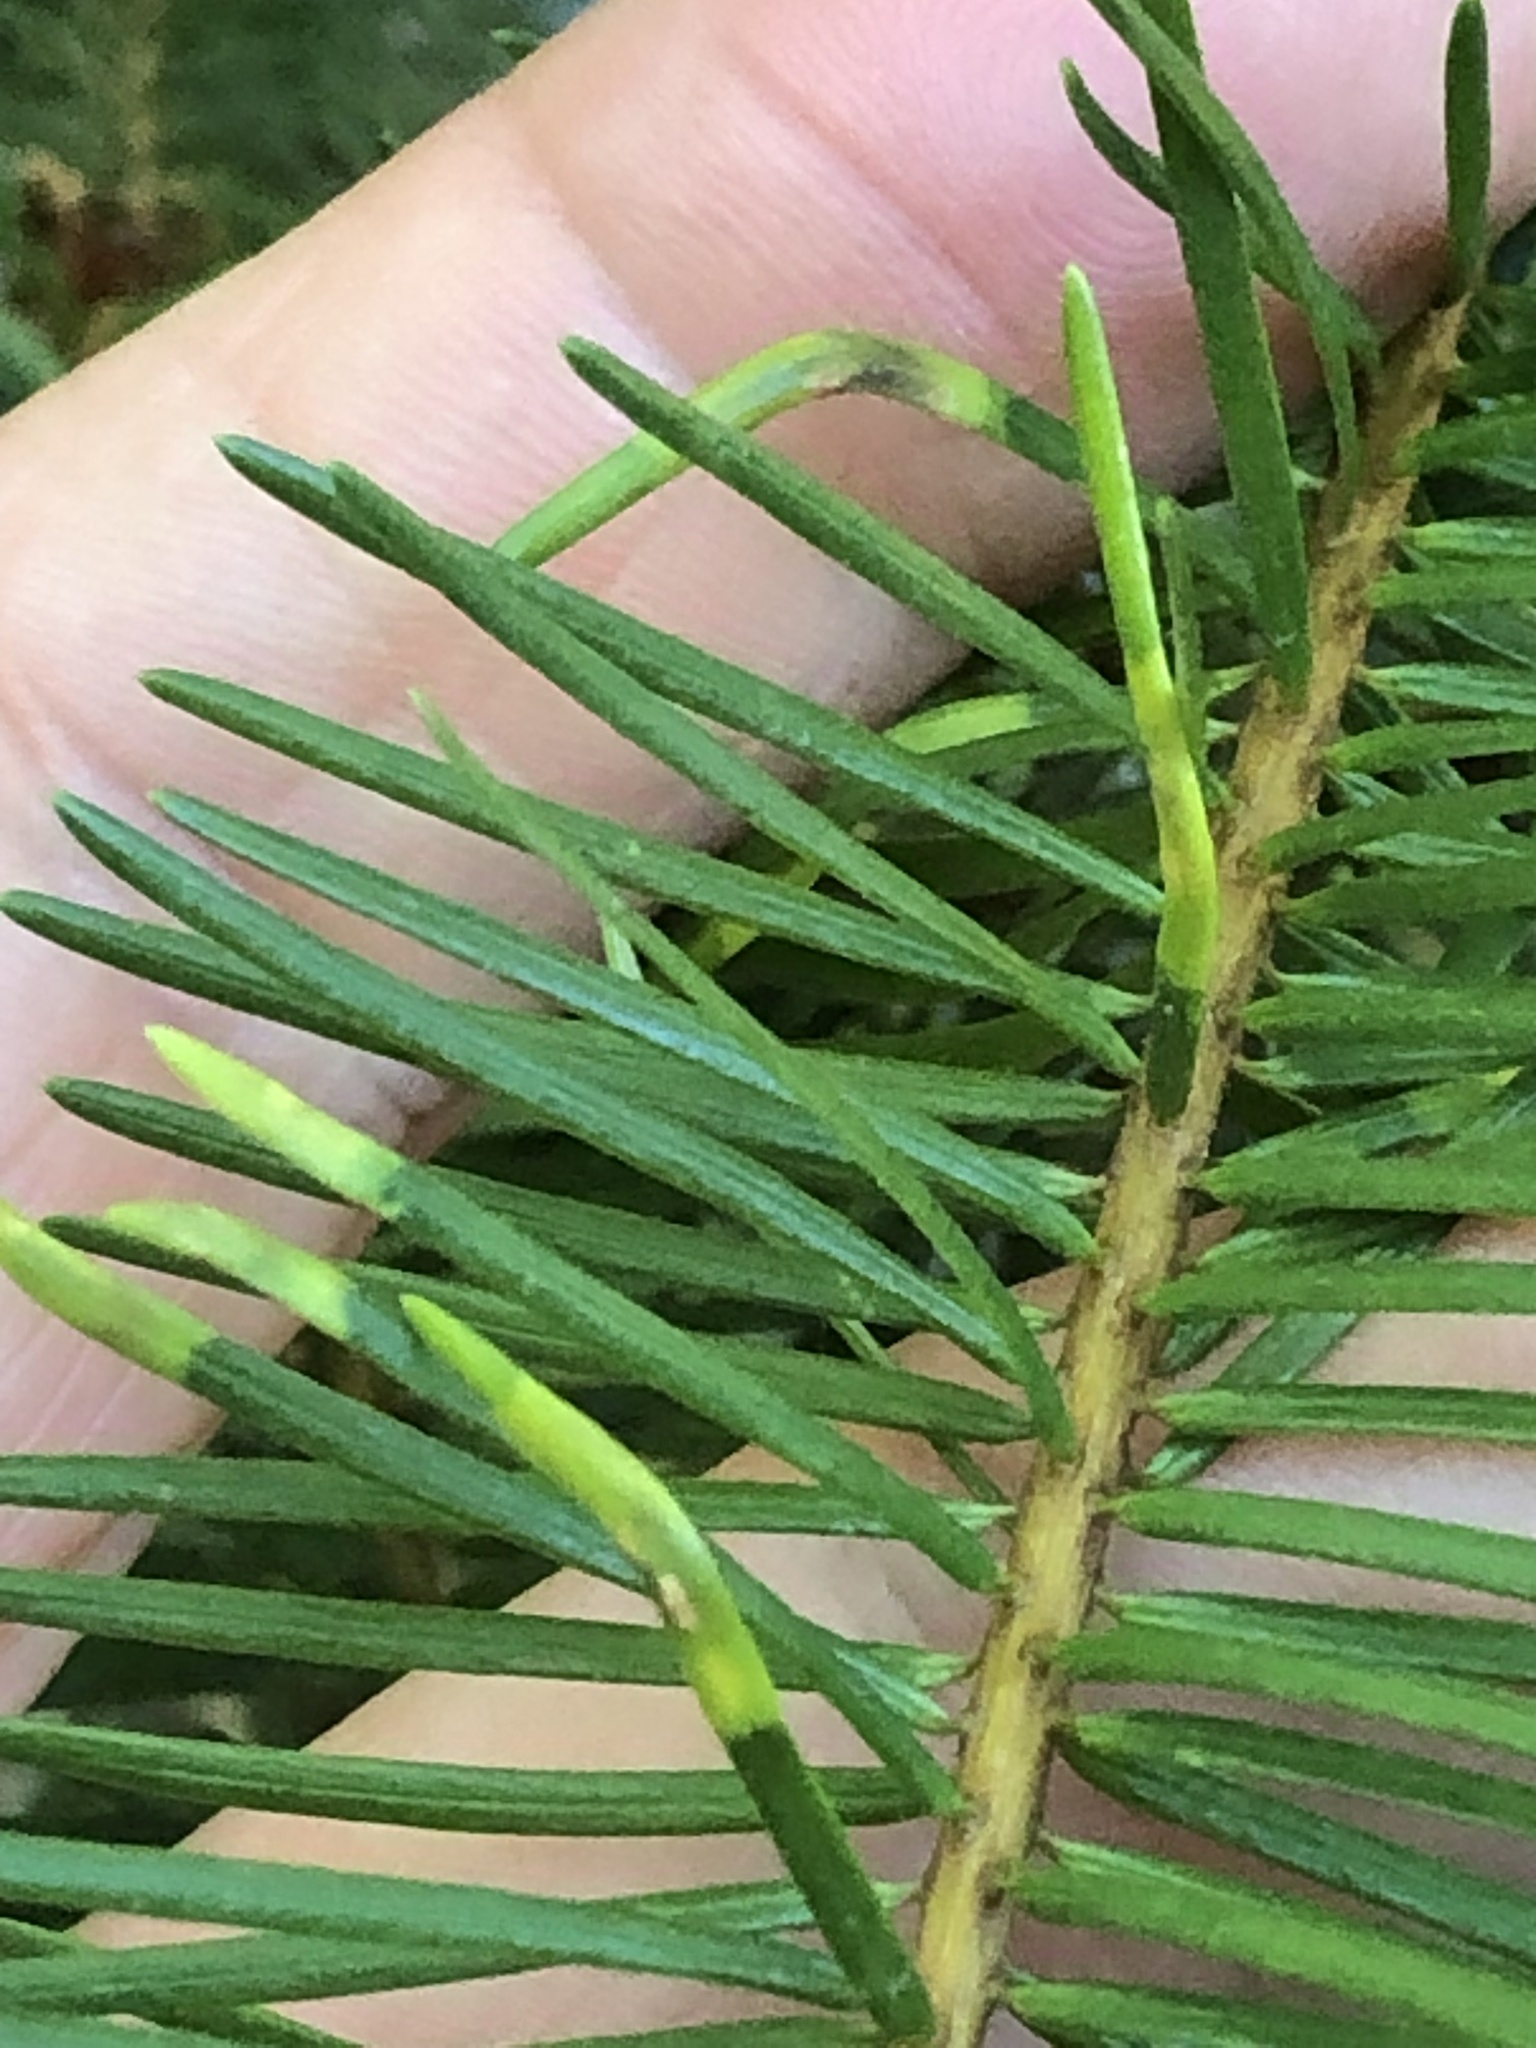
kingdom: Animalia
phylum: Arthropoda
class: Insecta
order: Diptera
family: Cecidomyiidae
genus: Contarinia
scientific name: Contarinia pseudotsugae
